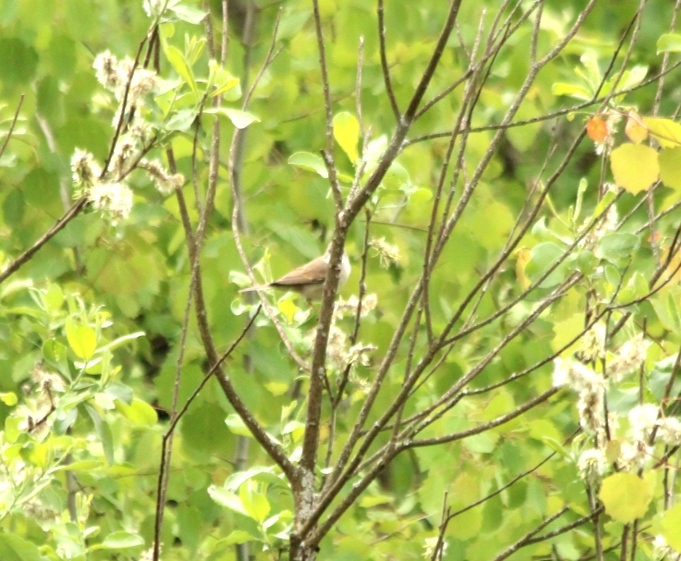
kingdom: Animalia
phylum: Chordata
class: Aves
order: Passeriformes
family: Sylviidae
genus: Sylvia
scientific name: Sylvia communis
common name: Common whitethroat
